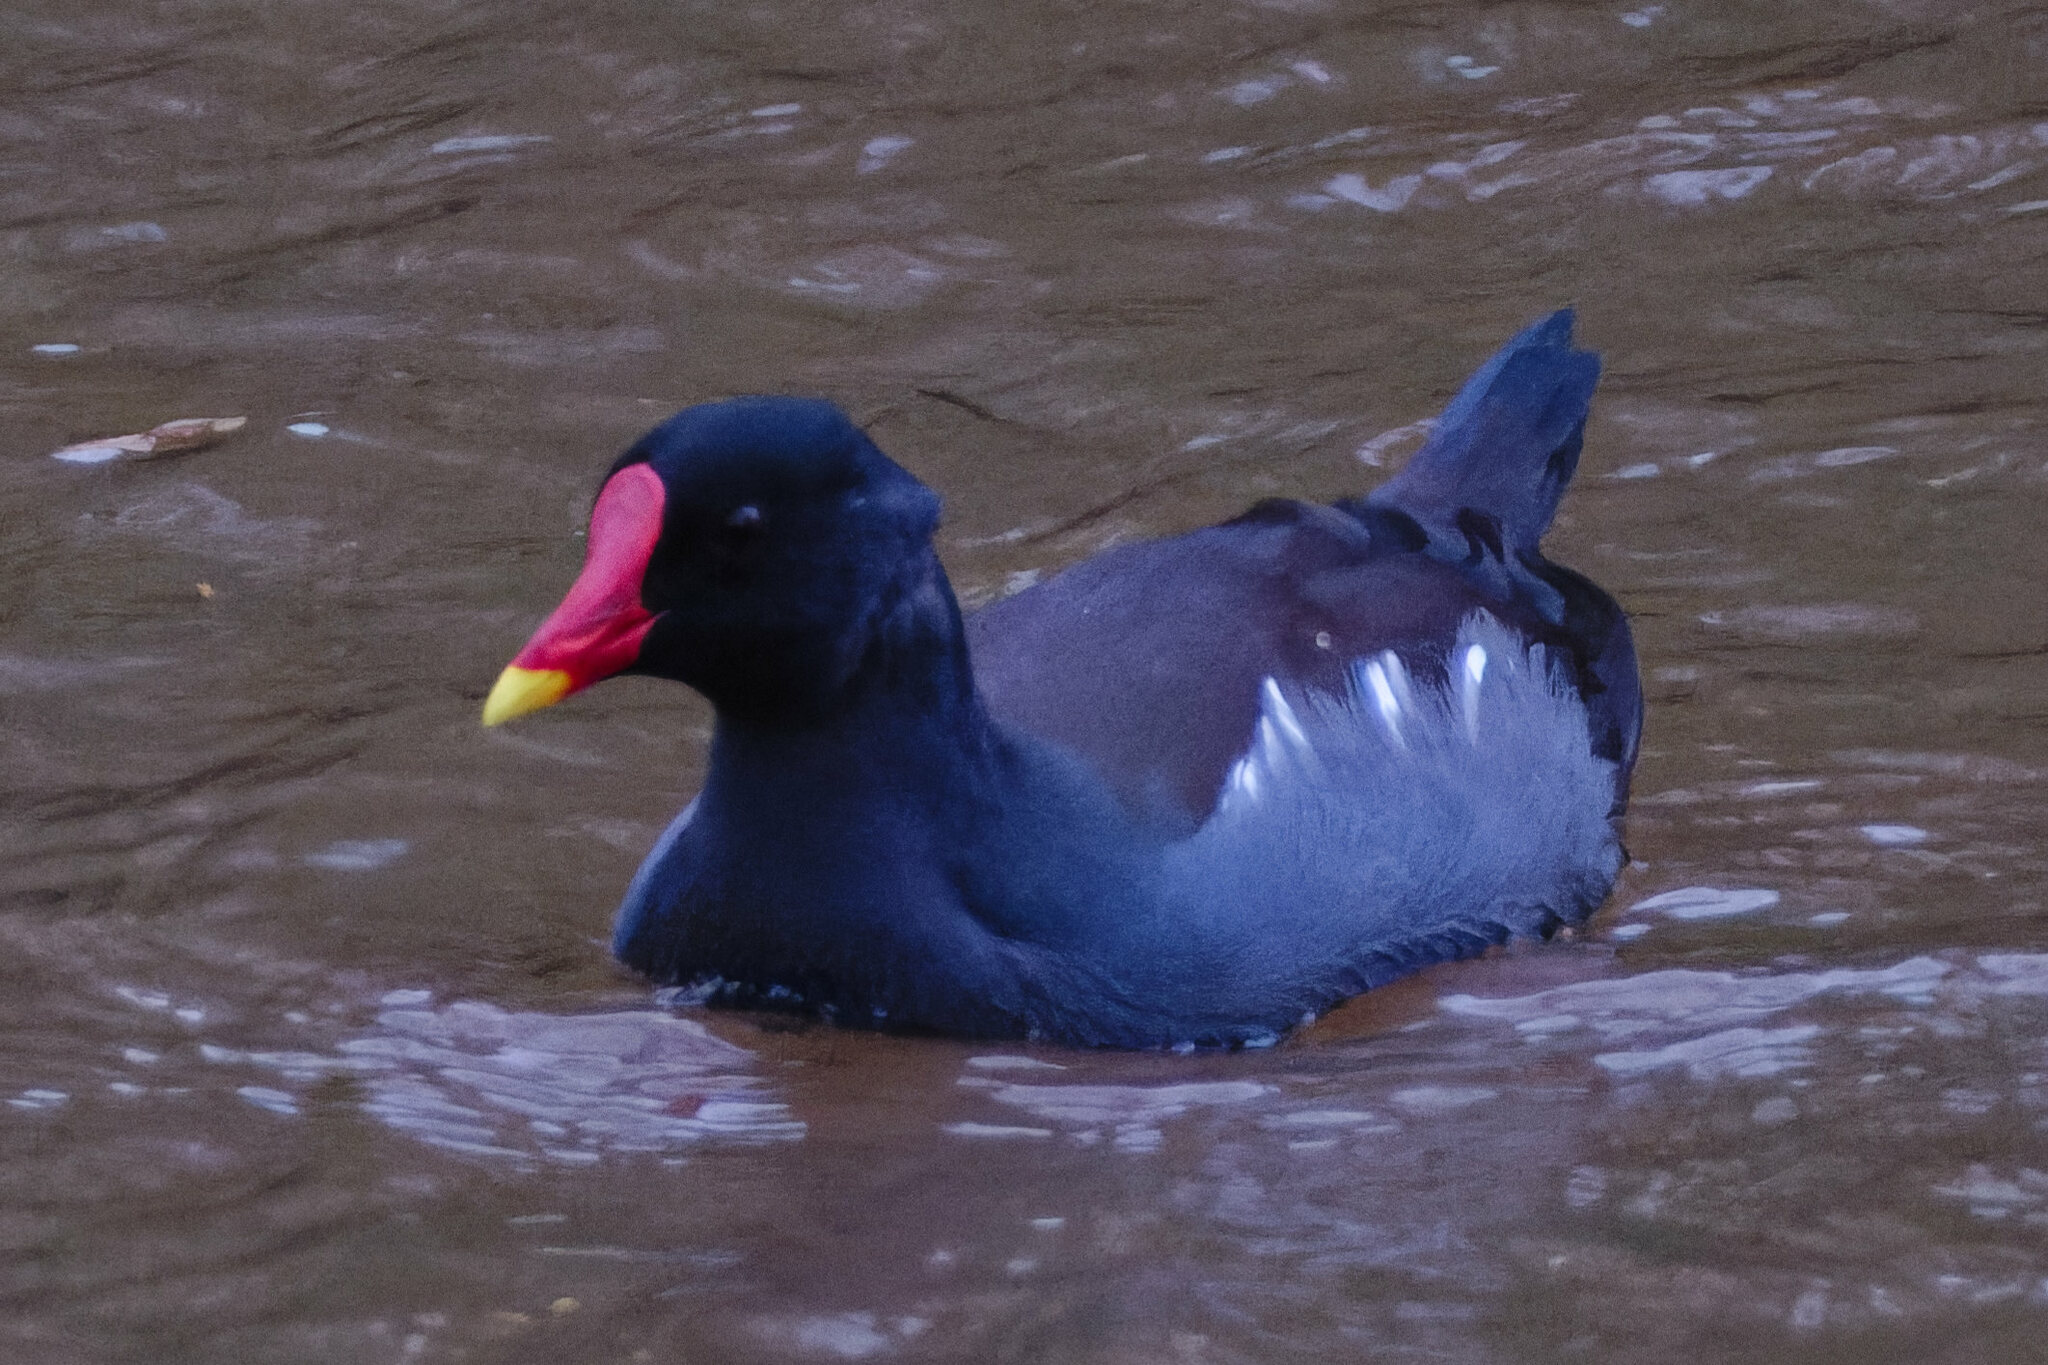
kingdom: Animalia
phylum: Chordata
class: Aves
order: Gruiformes
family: Rallidae
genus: Gallinula
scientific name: Gallinula chloropus
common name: Common moorhen
